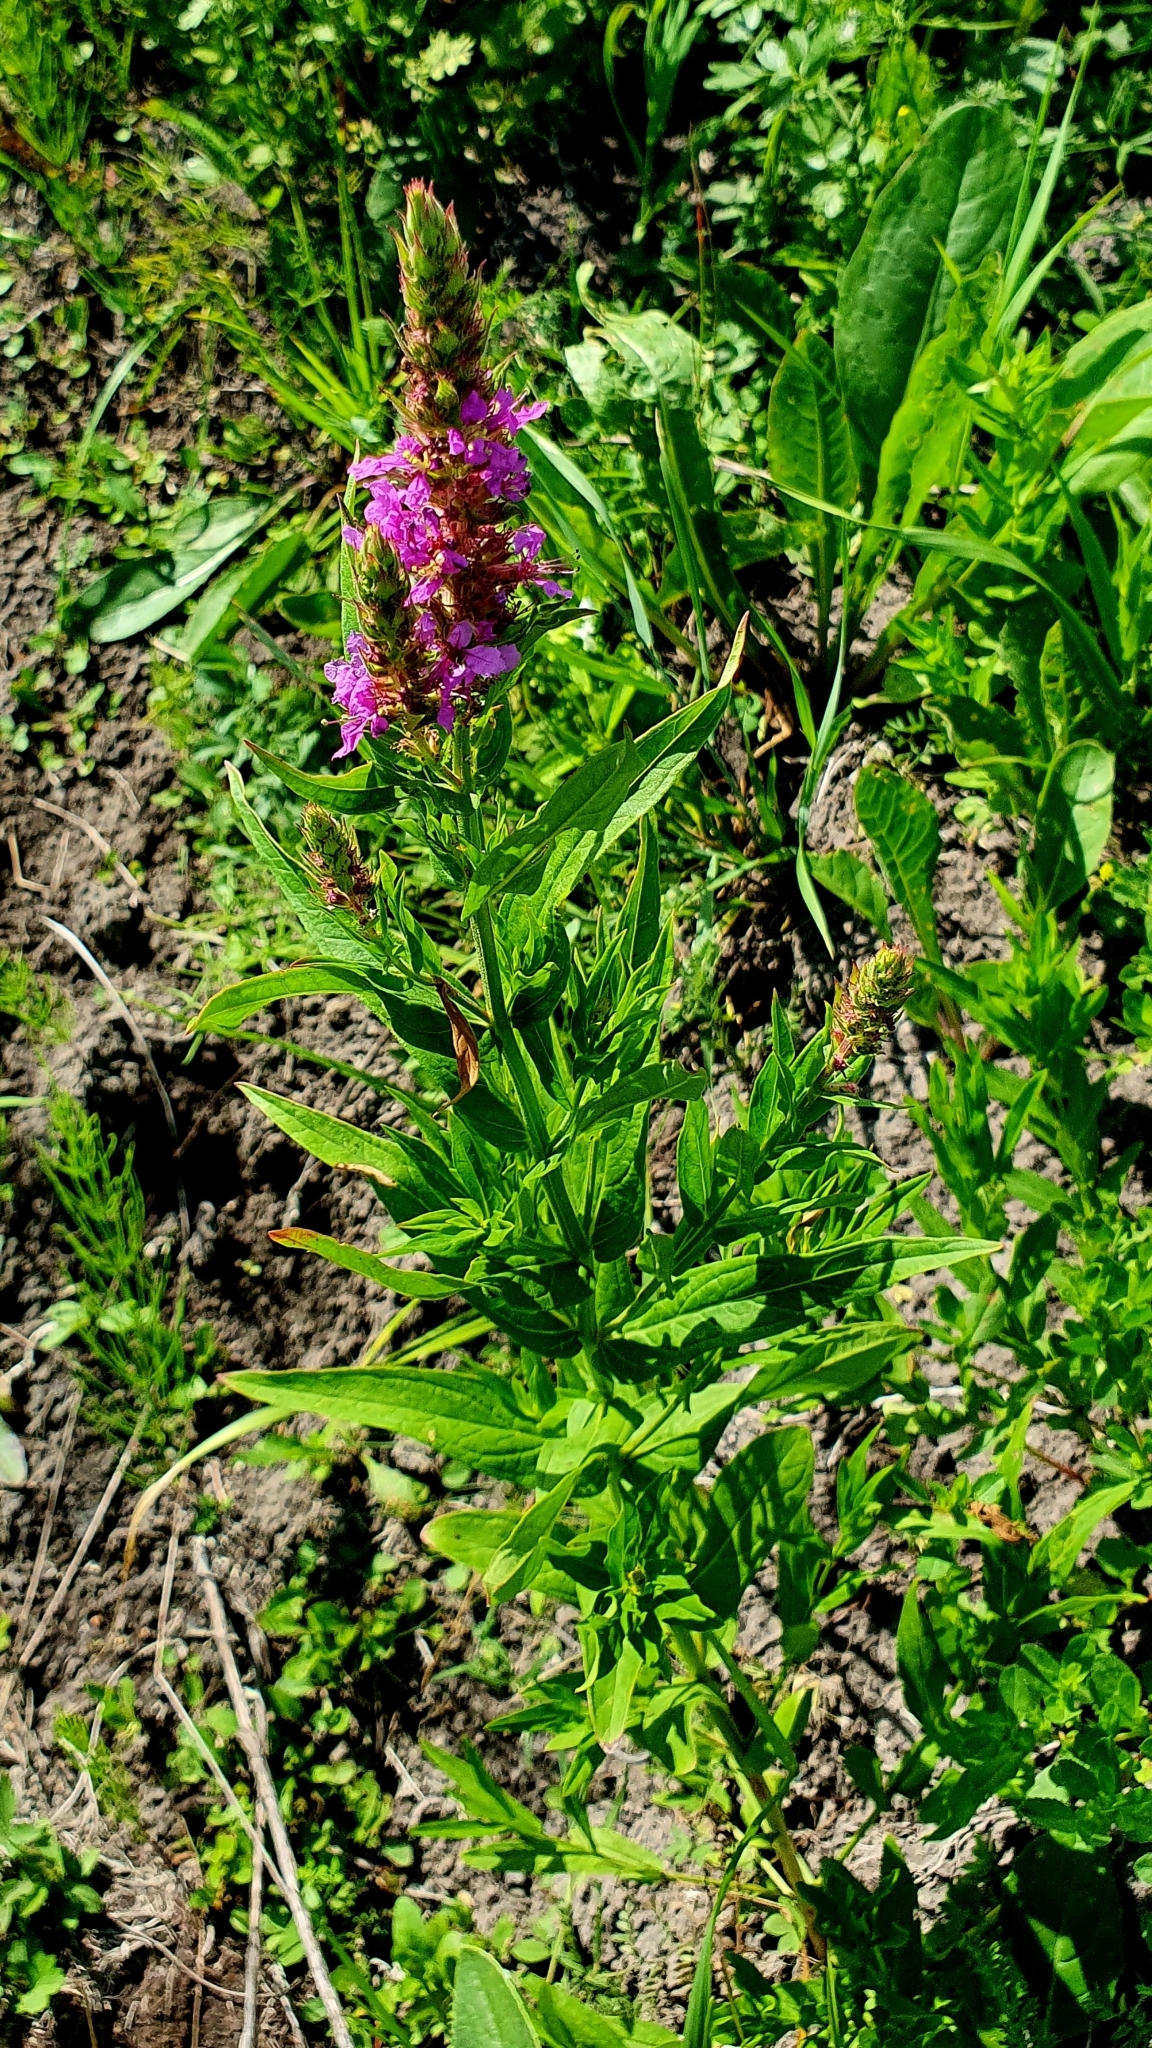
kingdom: Plantae
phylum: Tracheophyta
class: Magnoliopsida
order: Myrtales
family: Lythraceae
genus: Lythrum
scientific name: Lythrum salicaria
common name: Purple loosestrife
